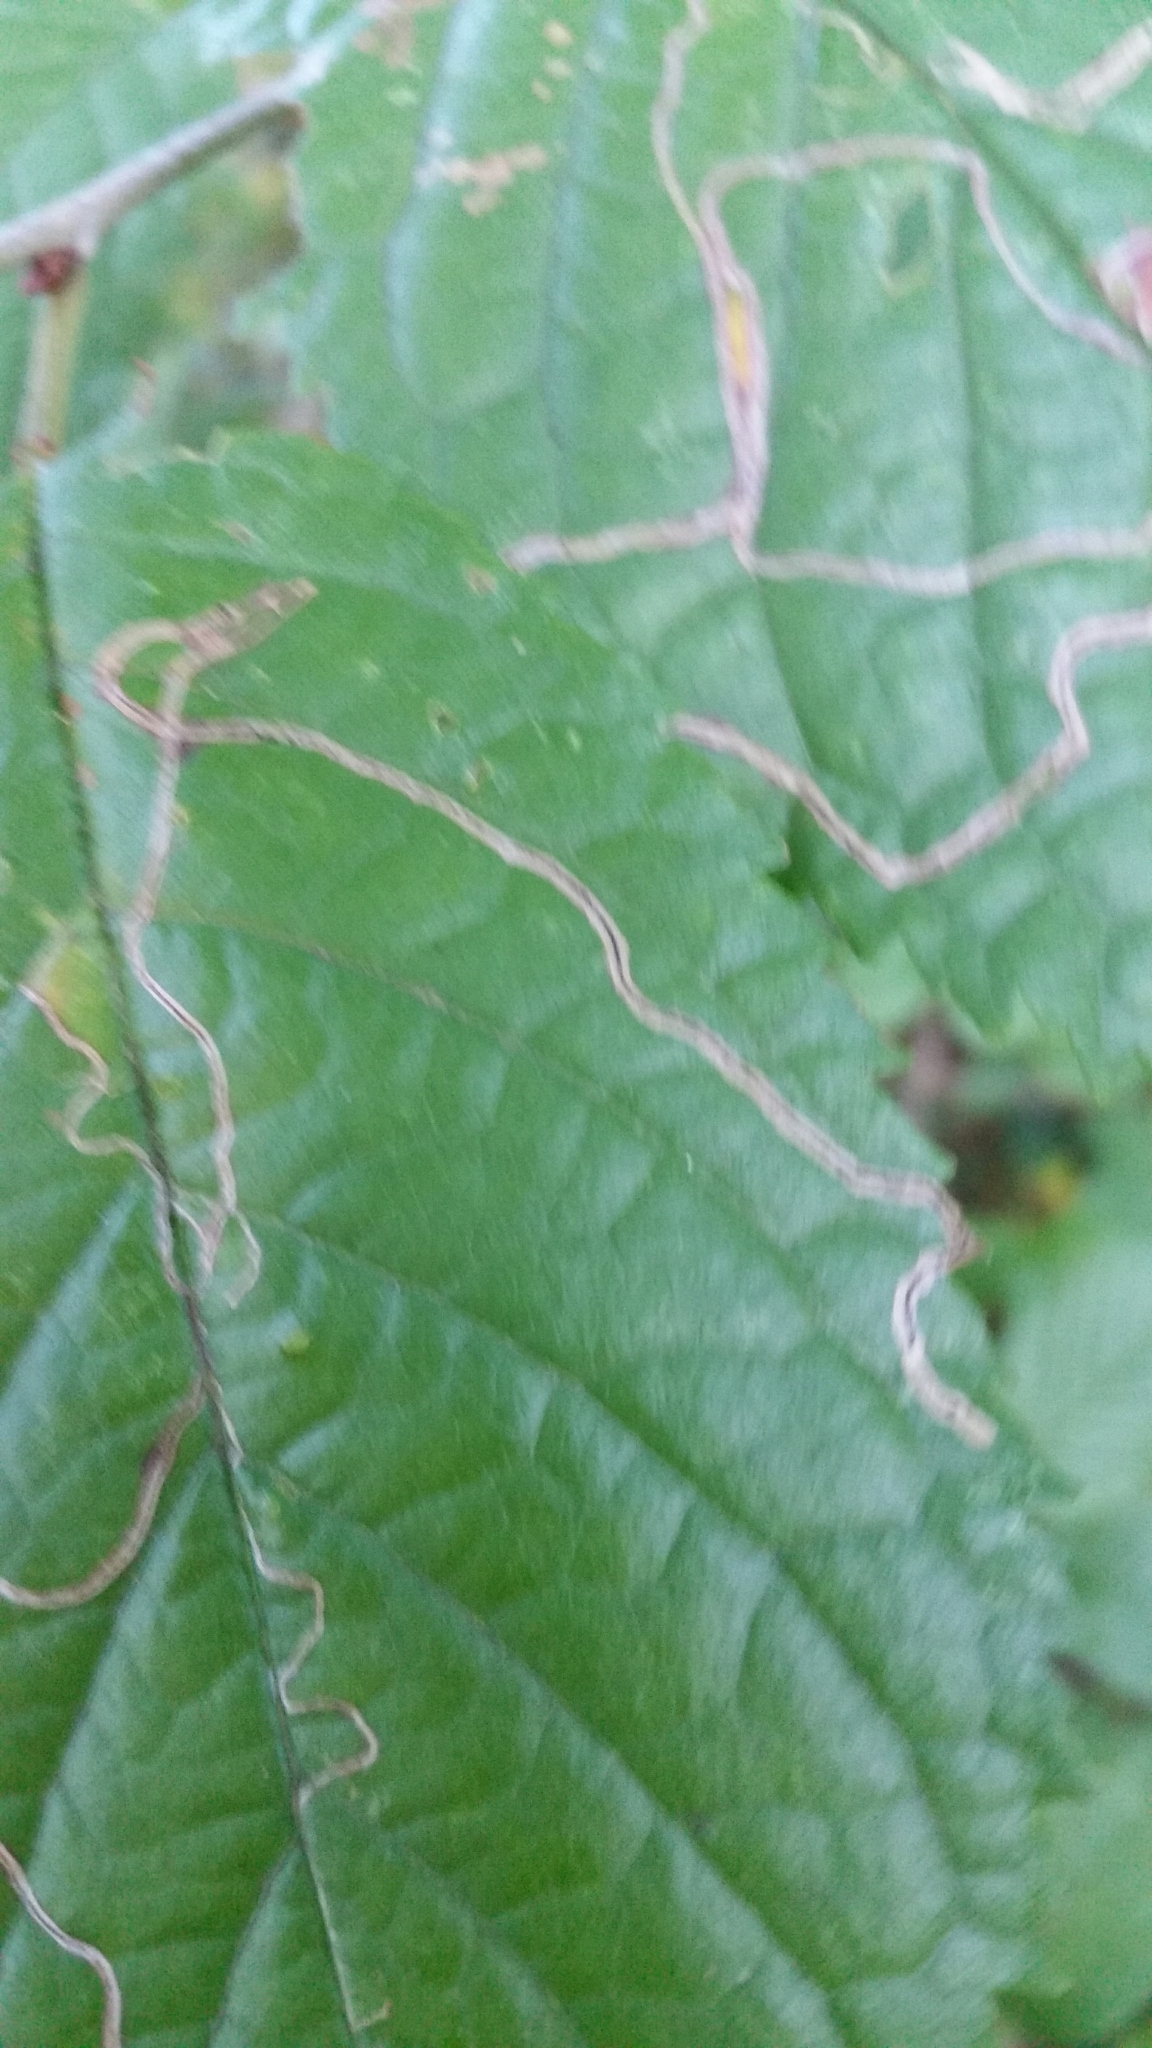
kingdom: Animalia
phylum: Arthropoda
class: Insecta
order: Lepidoptera
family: Lyonetiidae
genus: Lyonetia
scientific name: Lyonetia clerkella
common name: Apple leaf miner
